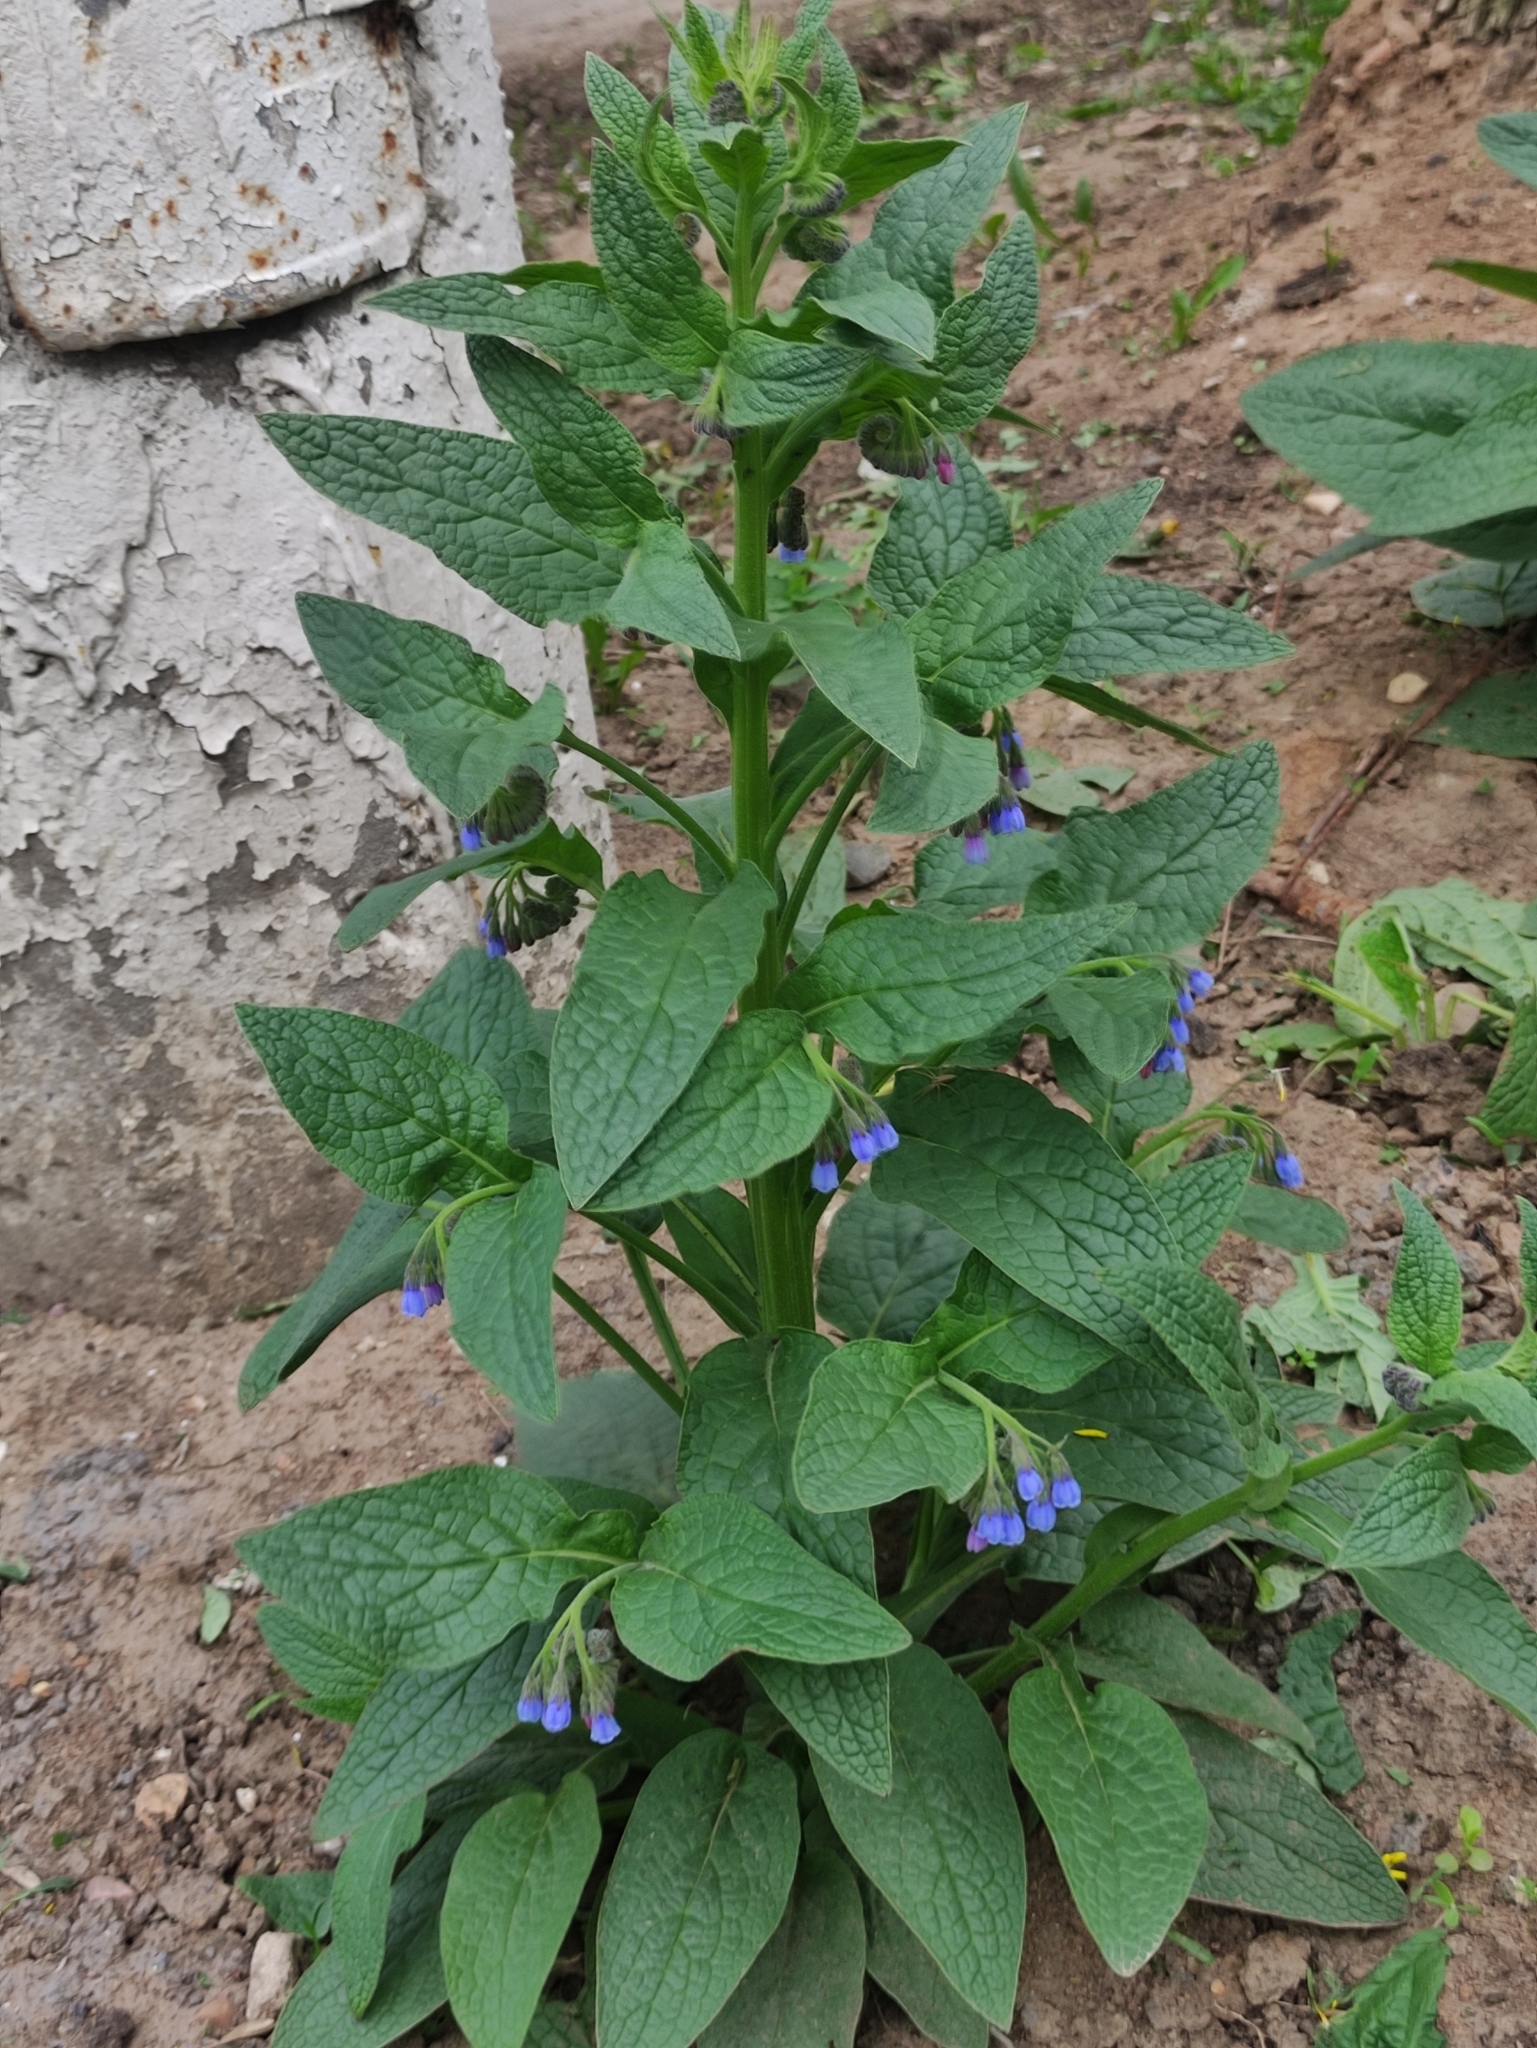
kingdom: Plantae
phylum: Tracheophyta
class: Magnoliopsida
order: Boraginales
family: Boraginaceae
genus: Symphytum
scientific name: Symphytum caucasicum
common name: Caucasian comfrey
